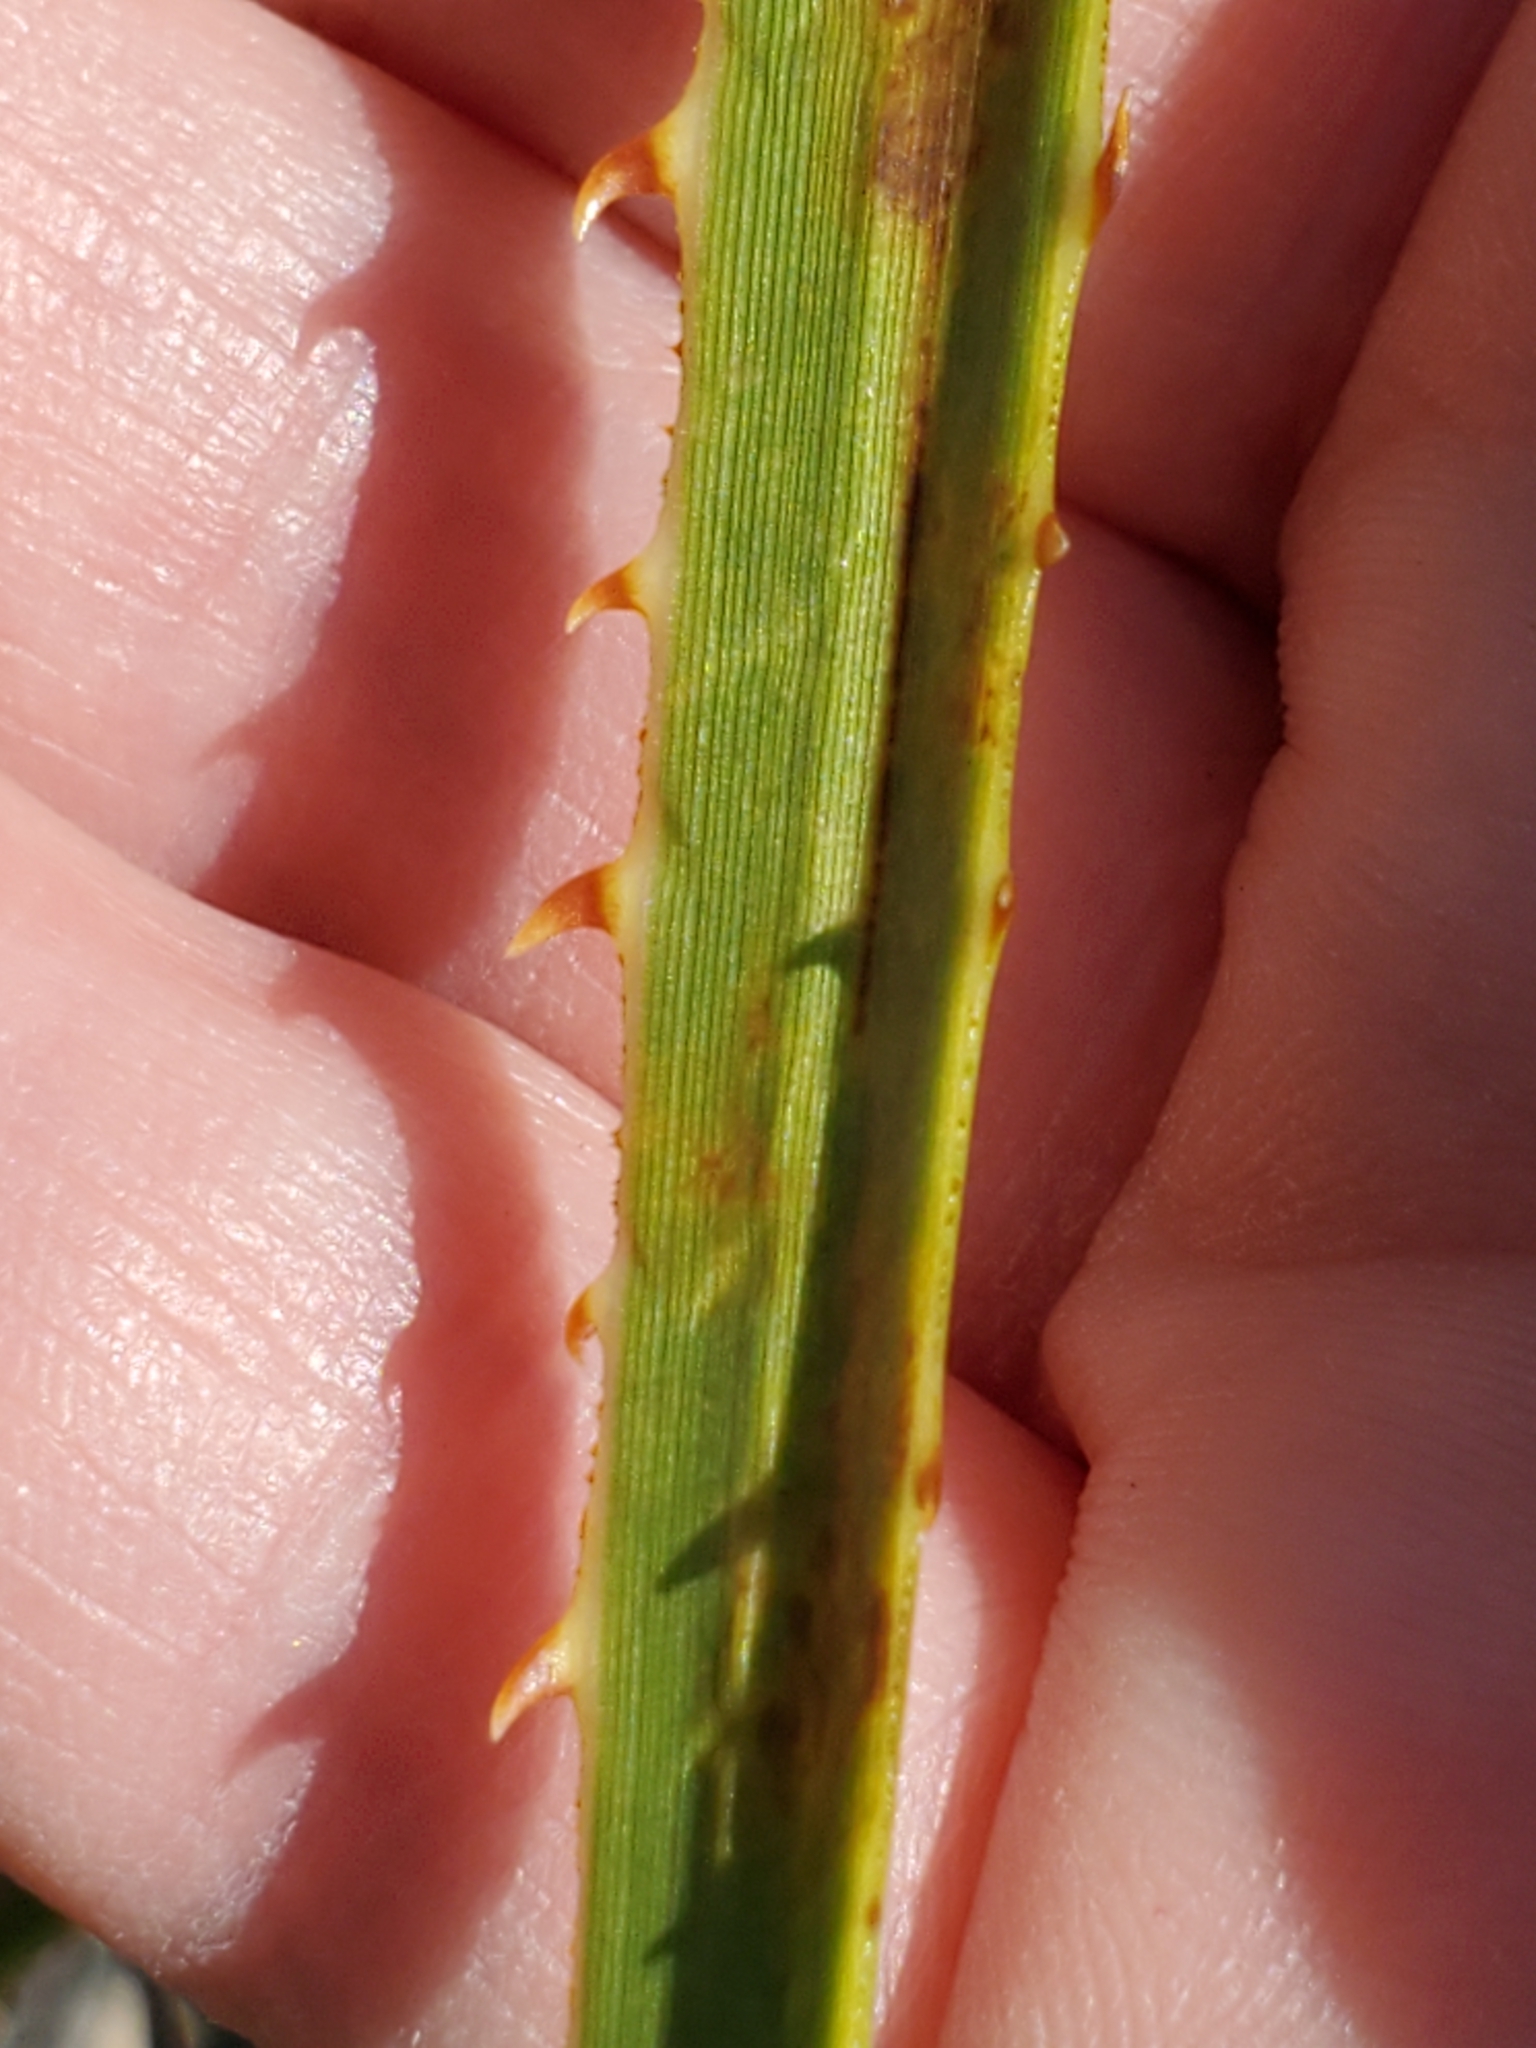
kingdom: Plantae
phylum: Tracheophyta
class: Liliopsida
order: Asparagales
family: Asparagaceae
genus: Dasylirion
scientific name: Dasylirion texanum
